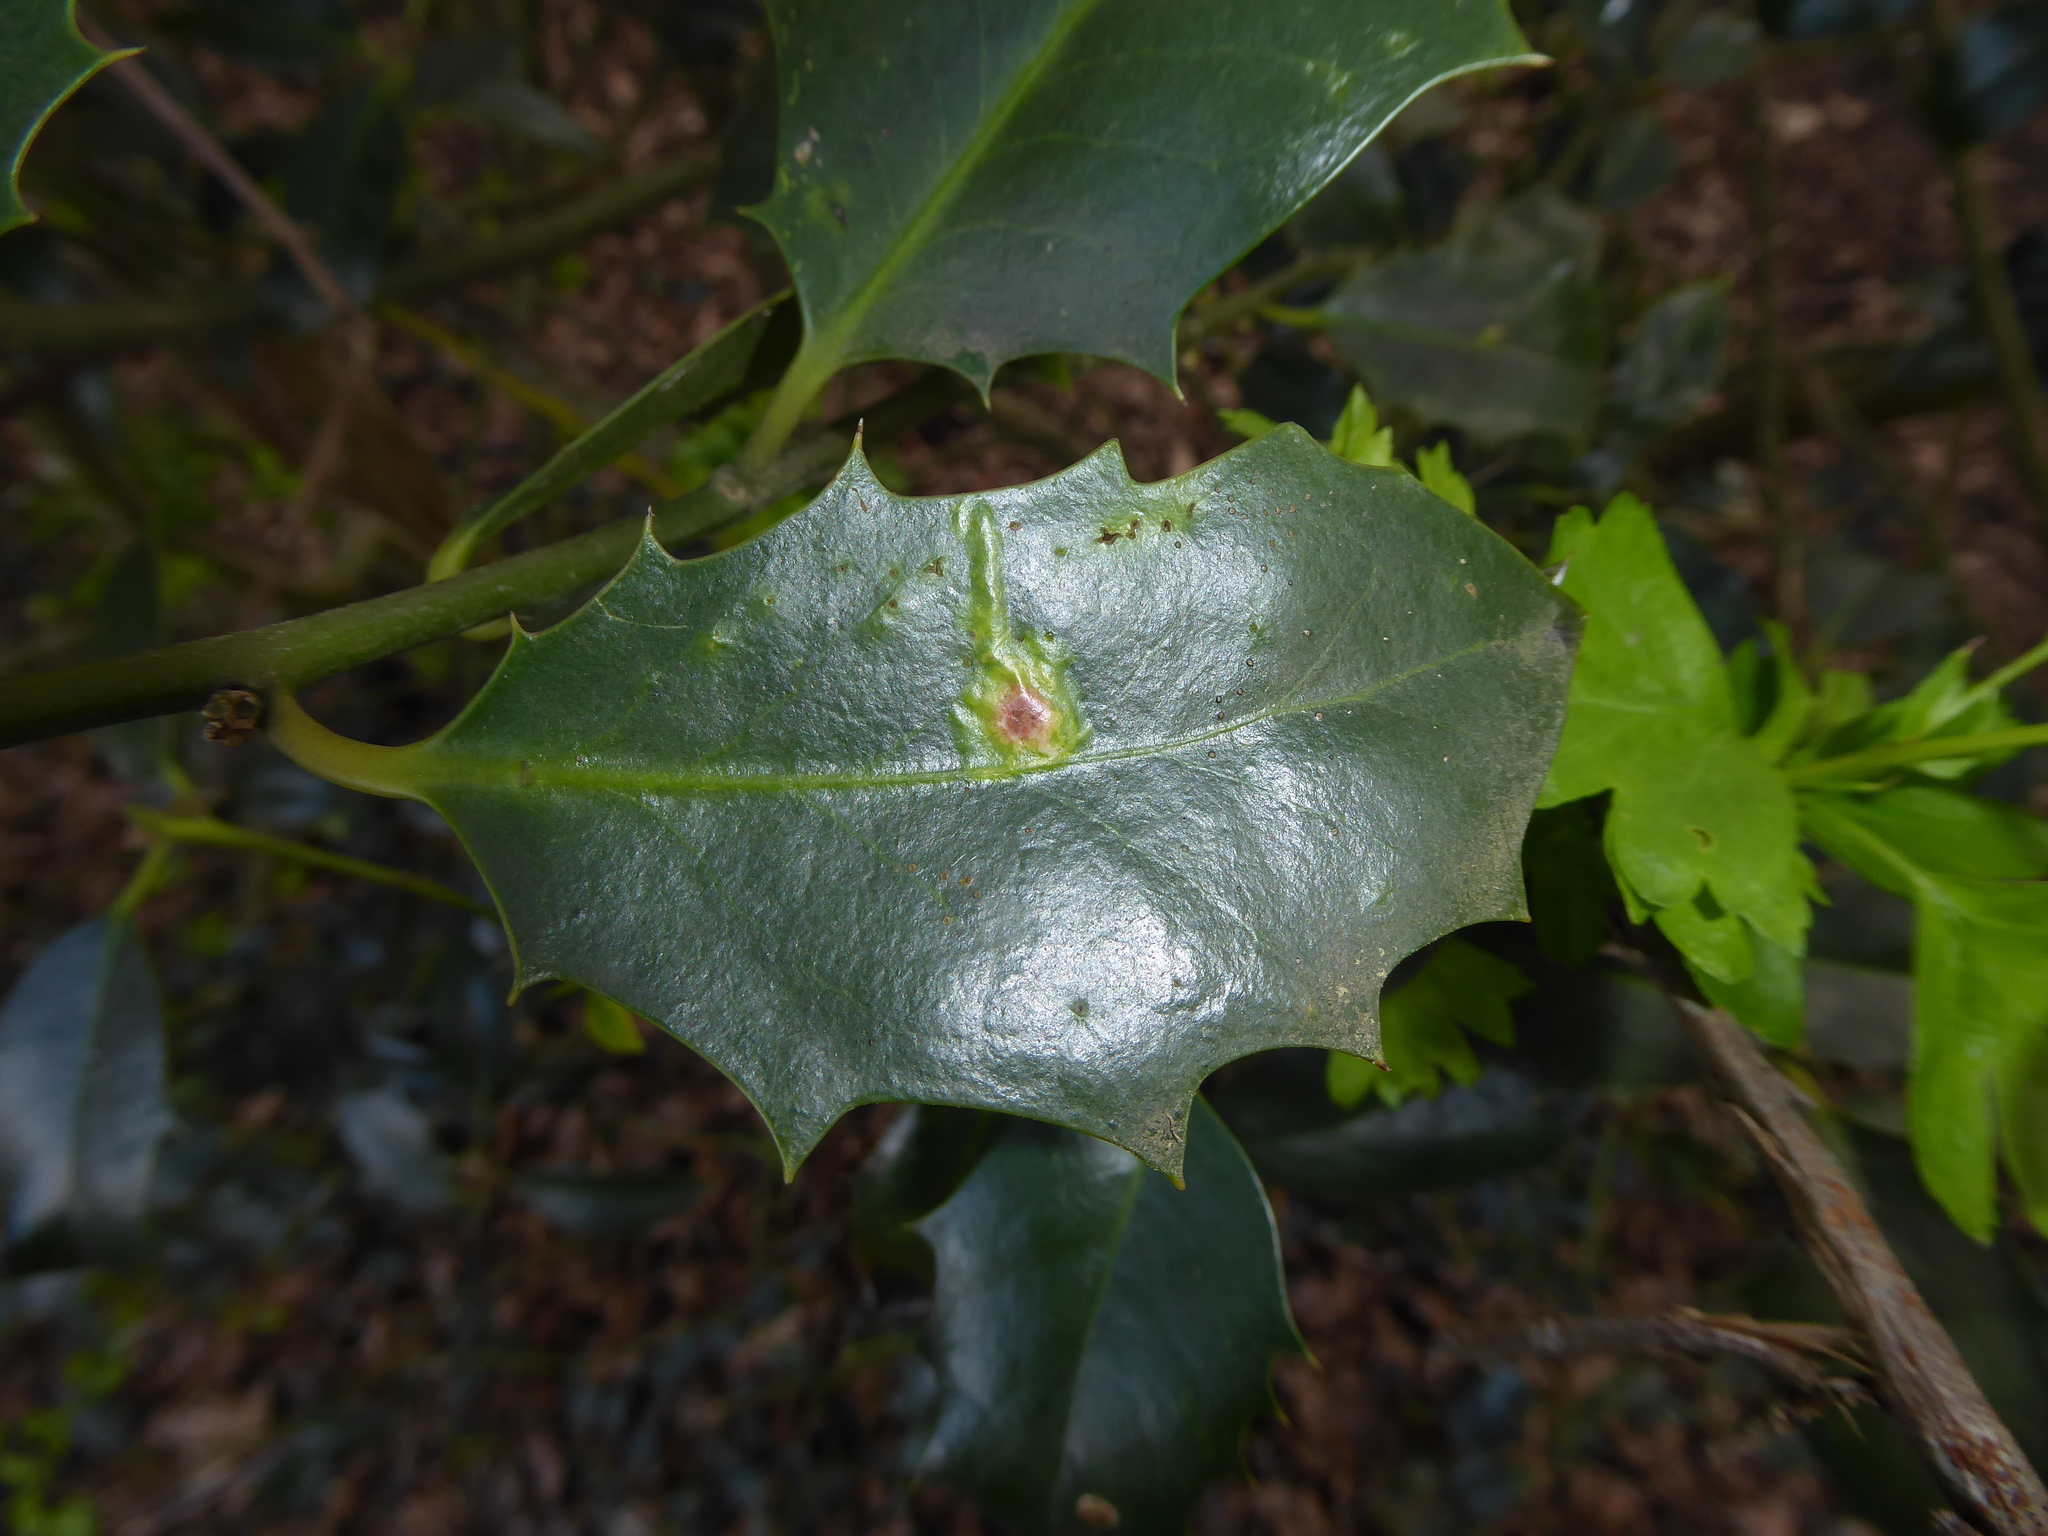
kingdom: Plantae
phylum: Tracheophyta
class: Magnoliopsida
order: Aquifoliales
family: Aquifoliaceae
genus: Ilex
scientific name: Ilex aquifolium
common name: English holly
